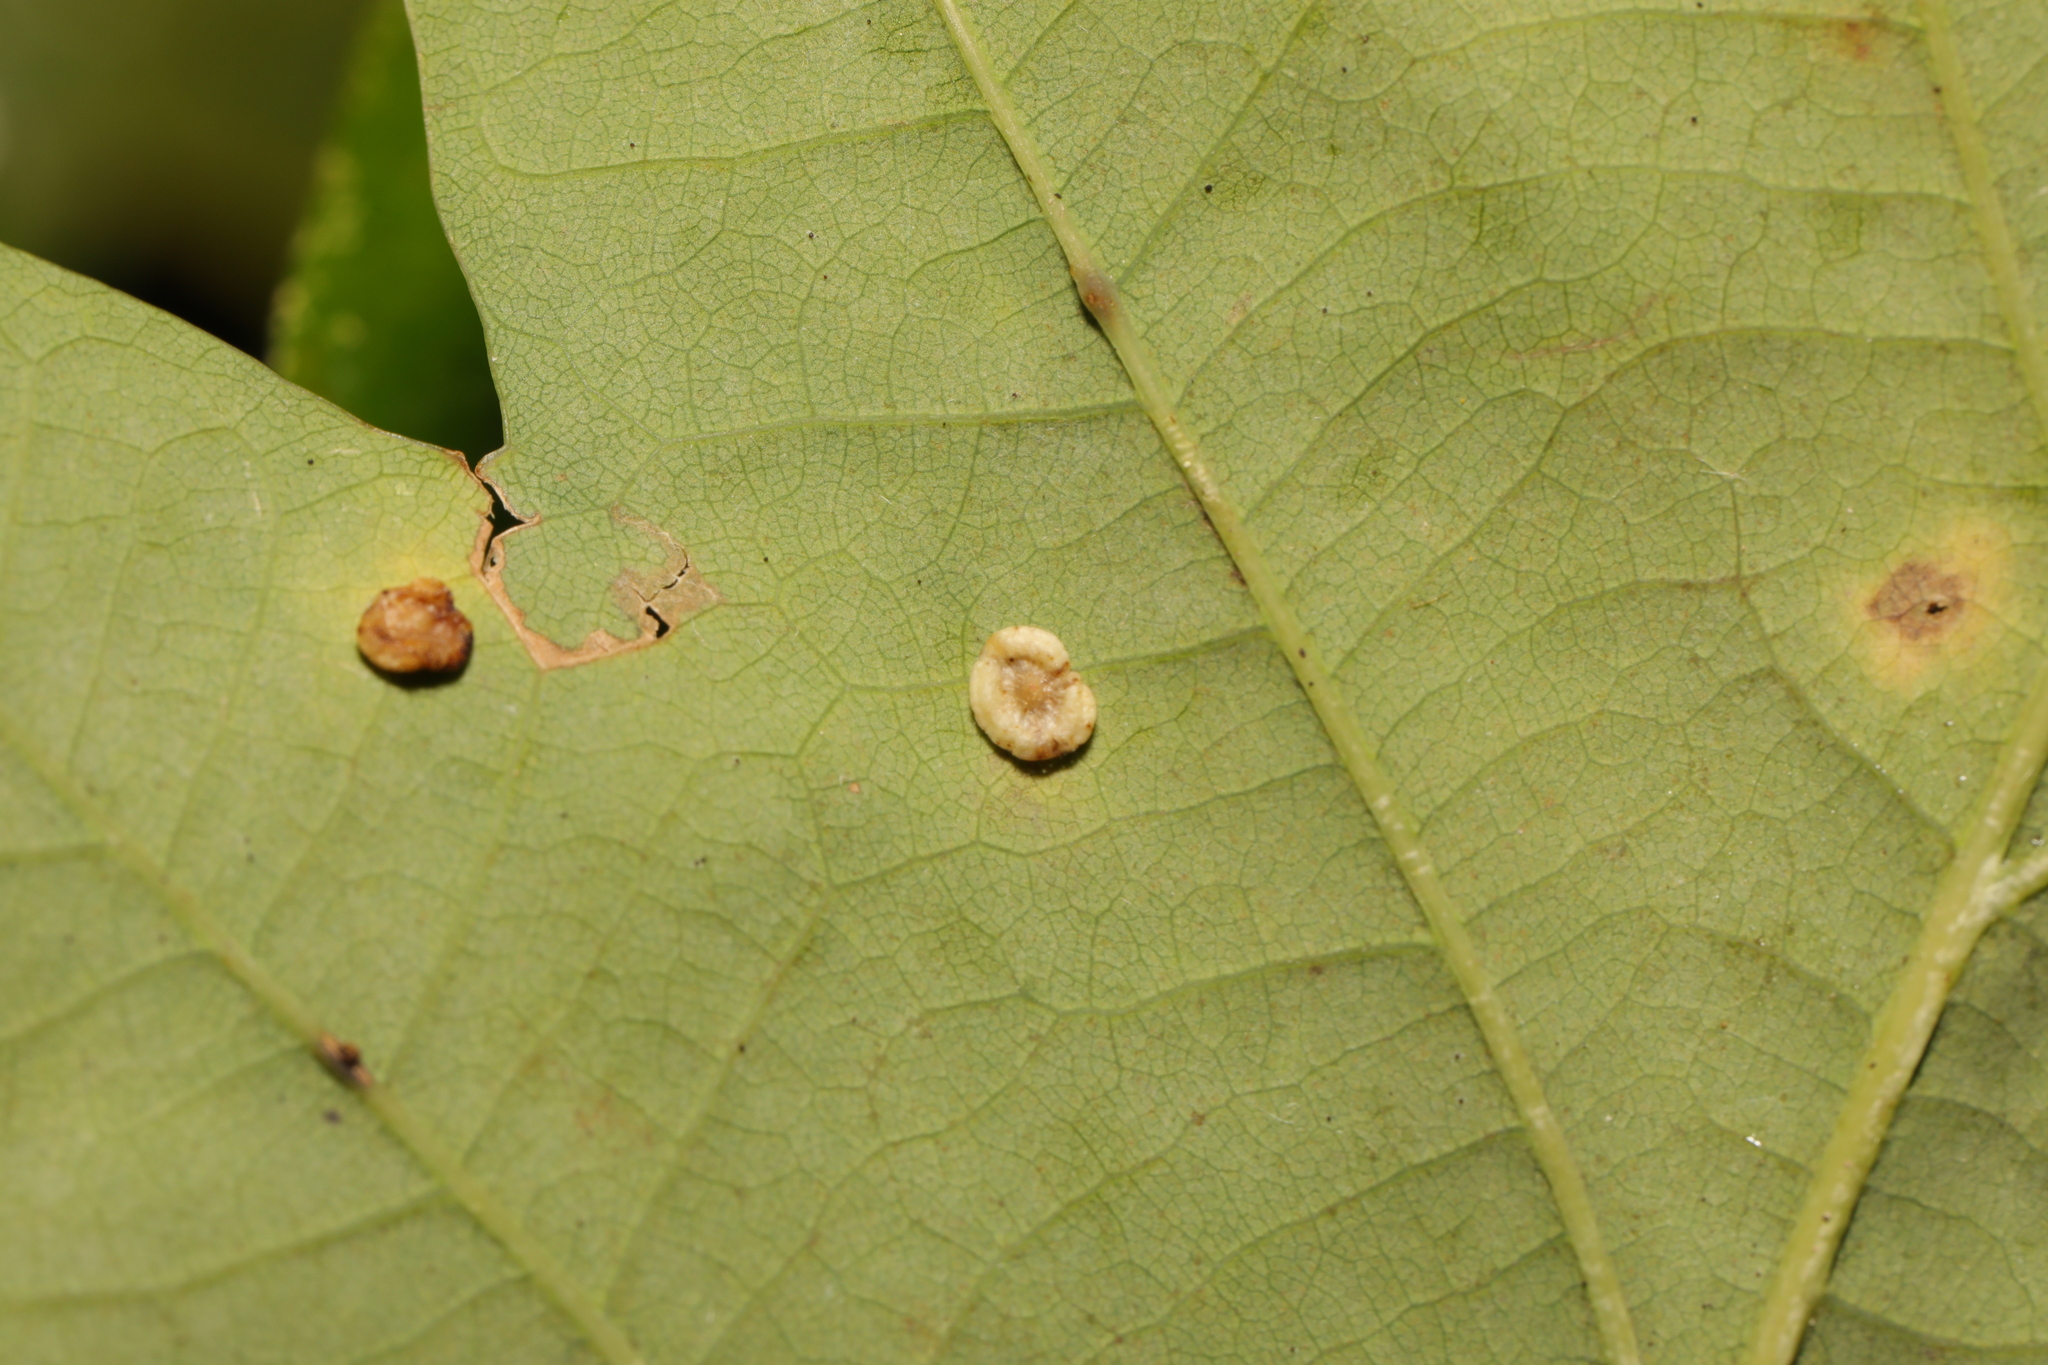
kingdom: Animalia
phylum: Arthropoda
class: Insecta
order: Hymenoptera
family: Cynipidae
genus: Neuroterus
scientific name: Neuroterus albipes
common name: Smooth spangle gall
